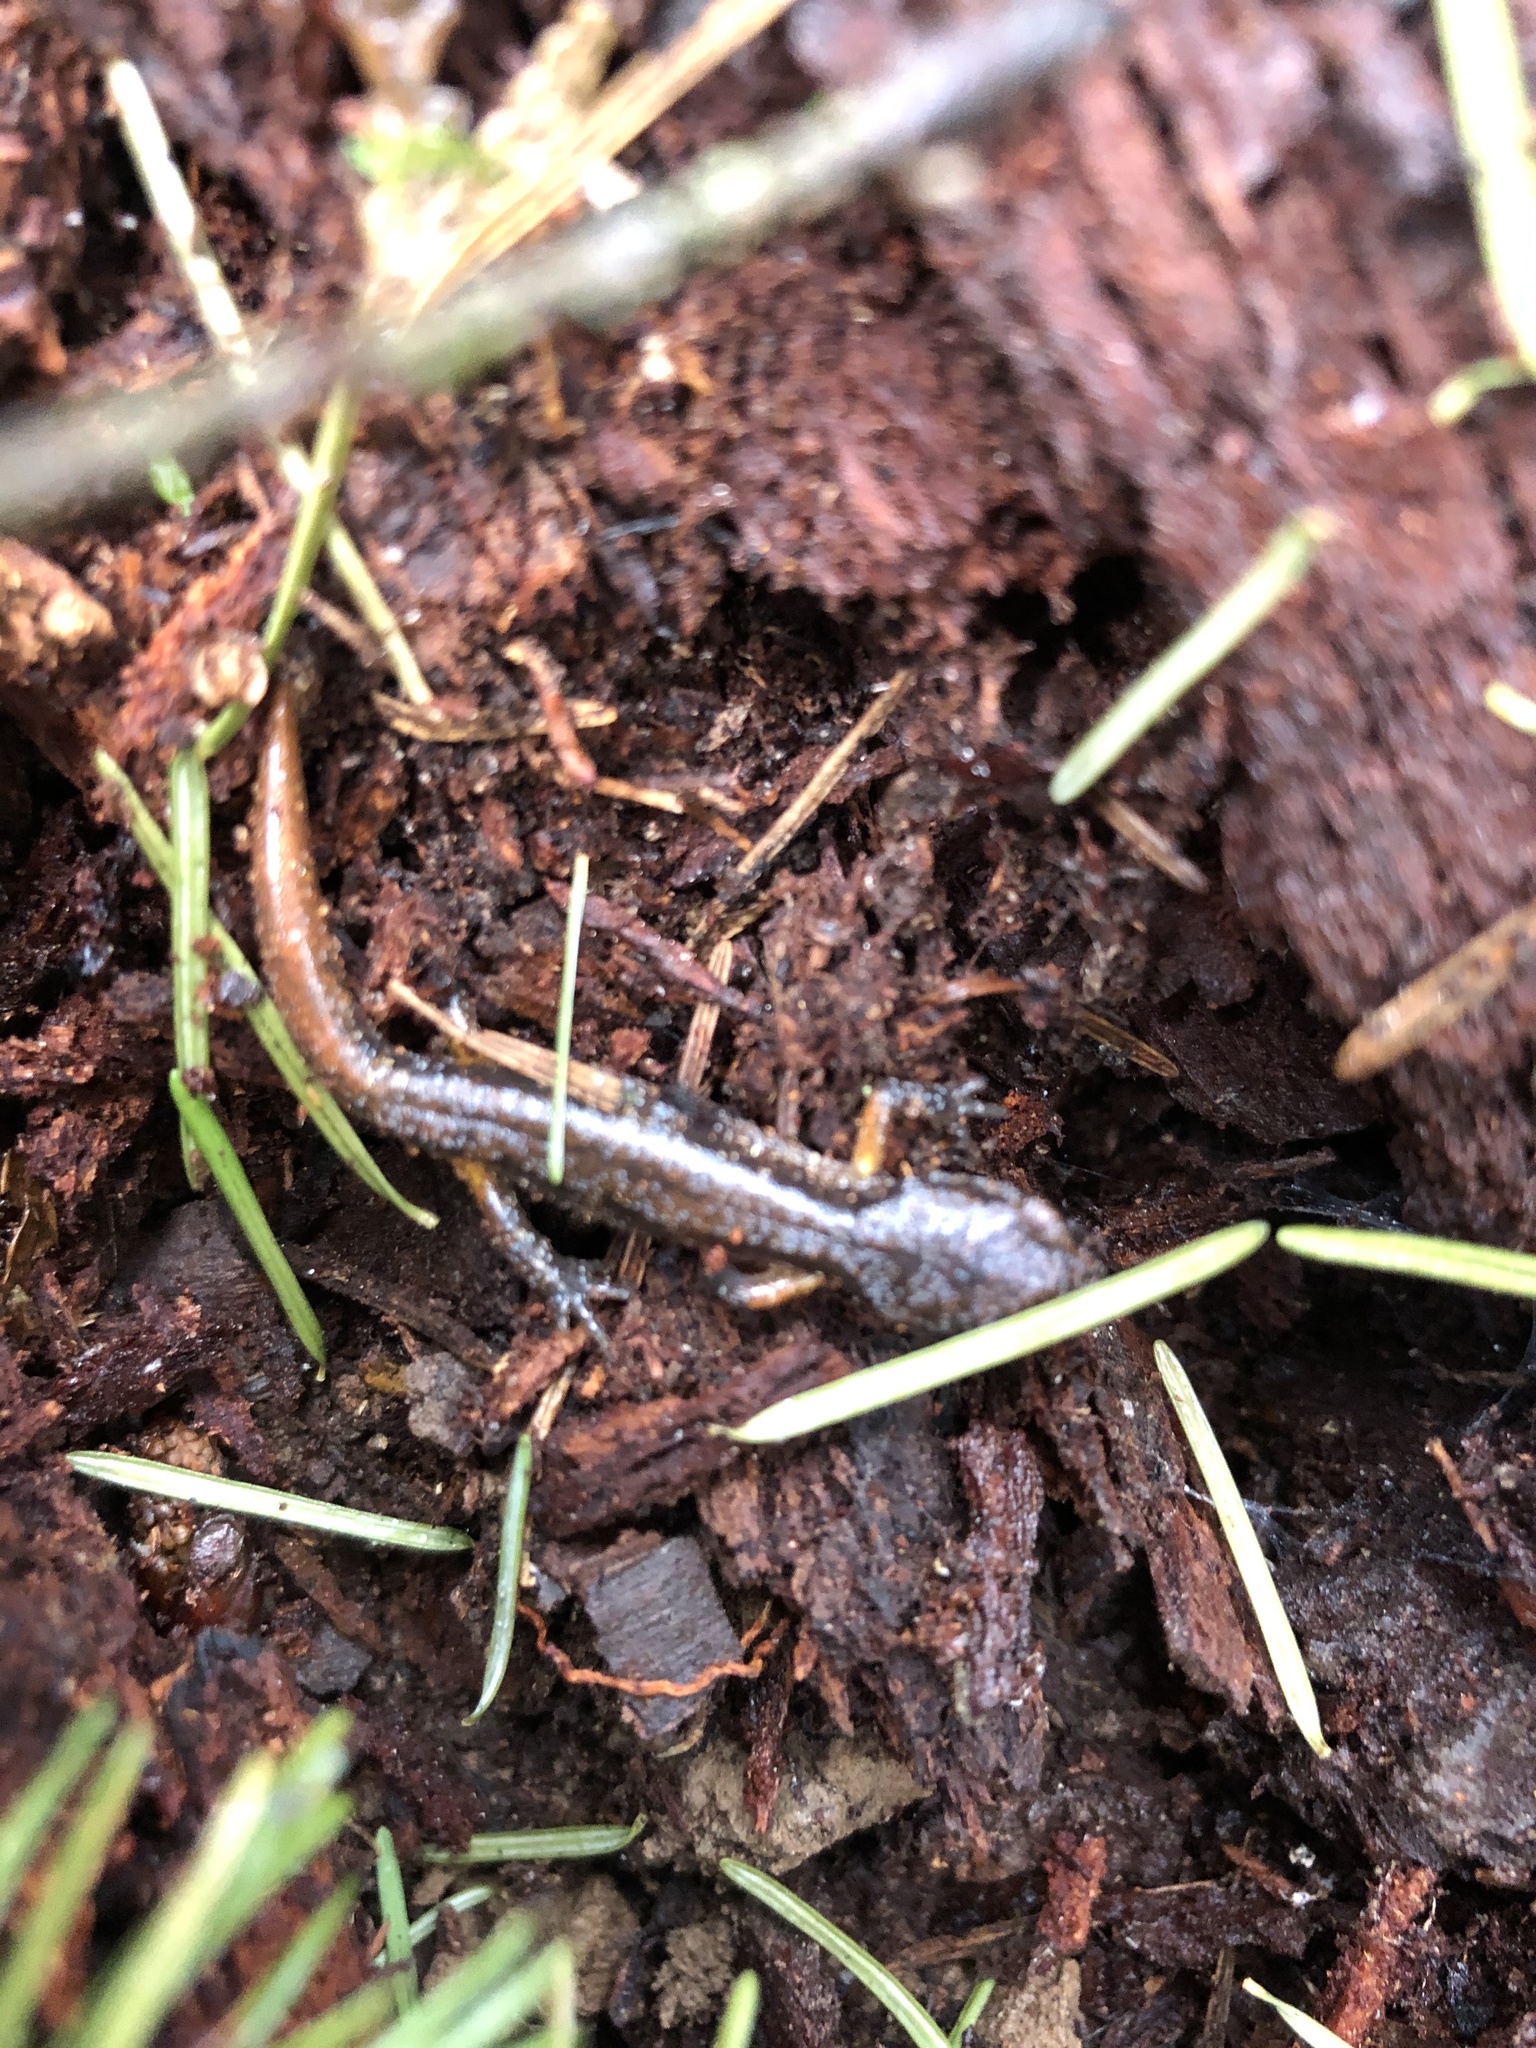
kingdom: Animalia
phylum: Chordata
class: Amphibia
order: Caudata
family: Plethodontidae
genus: Ensatina
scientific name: Ensatina eschscholtzii
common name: Ensatina
